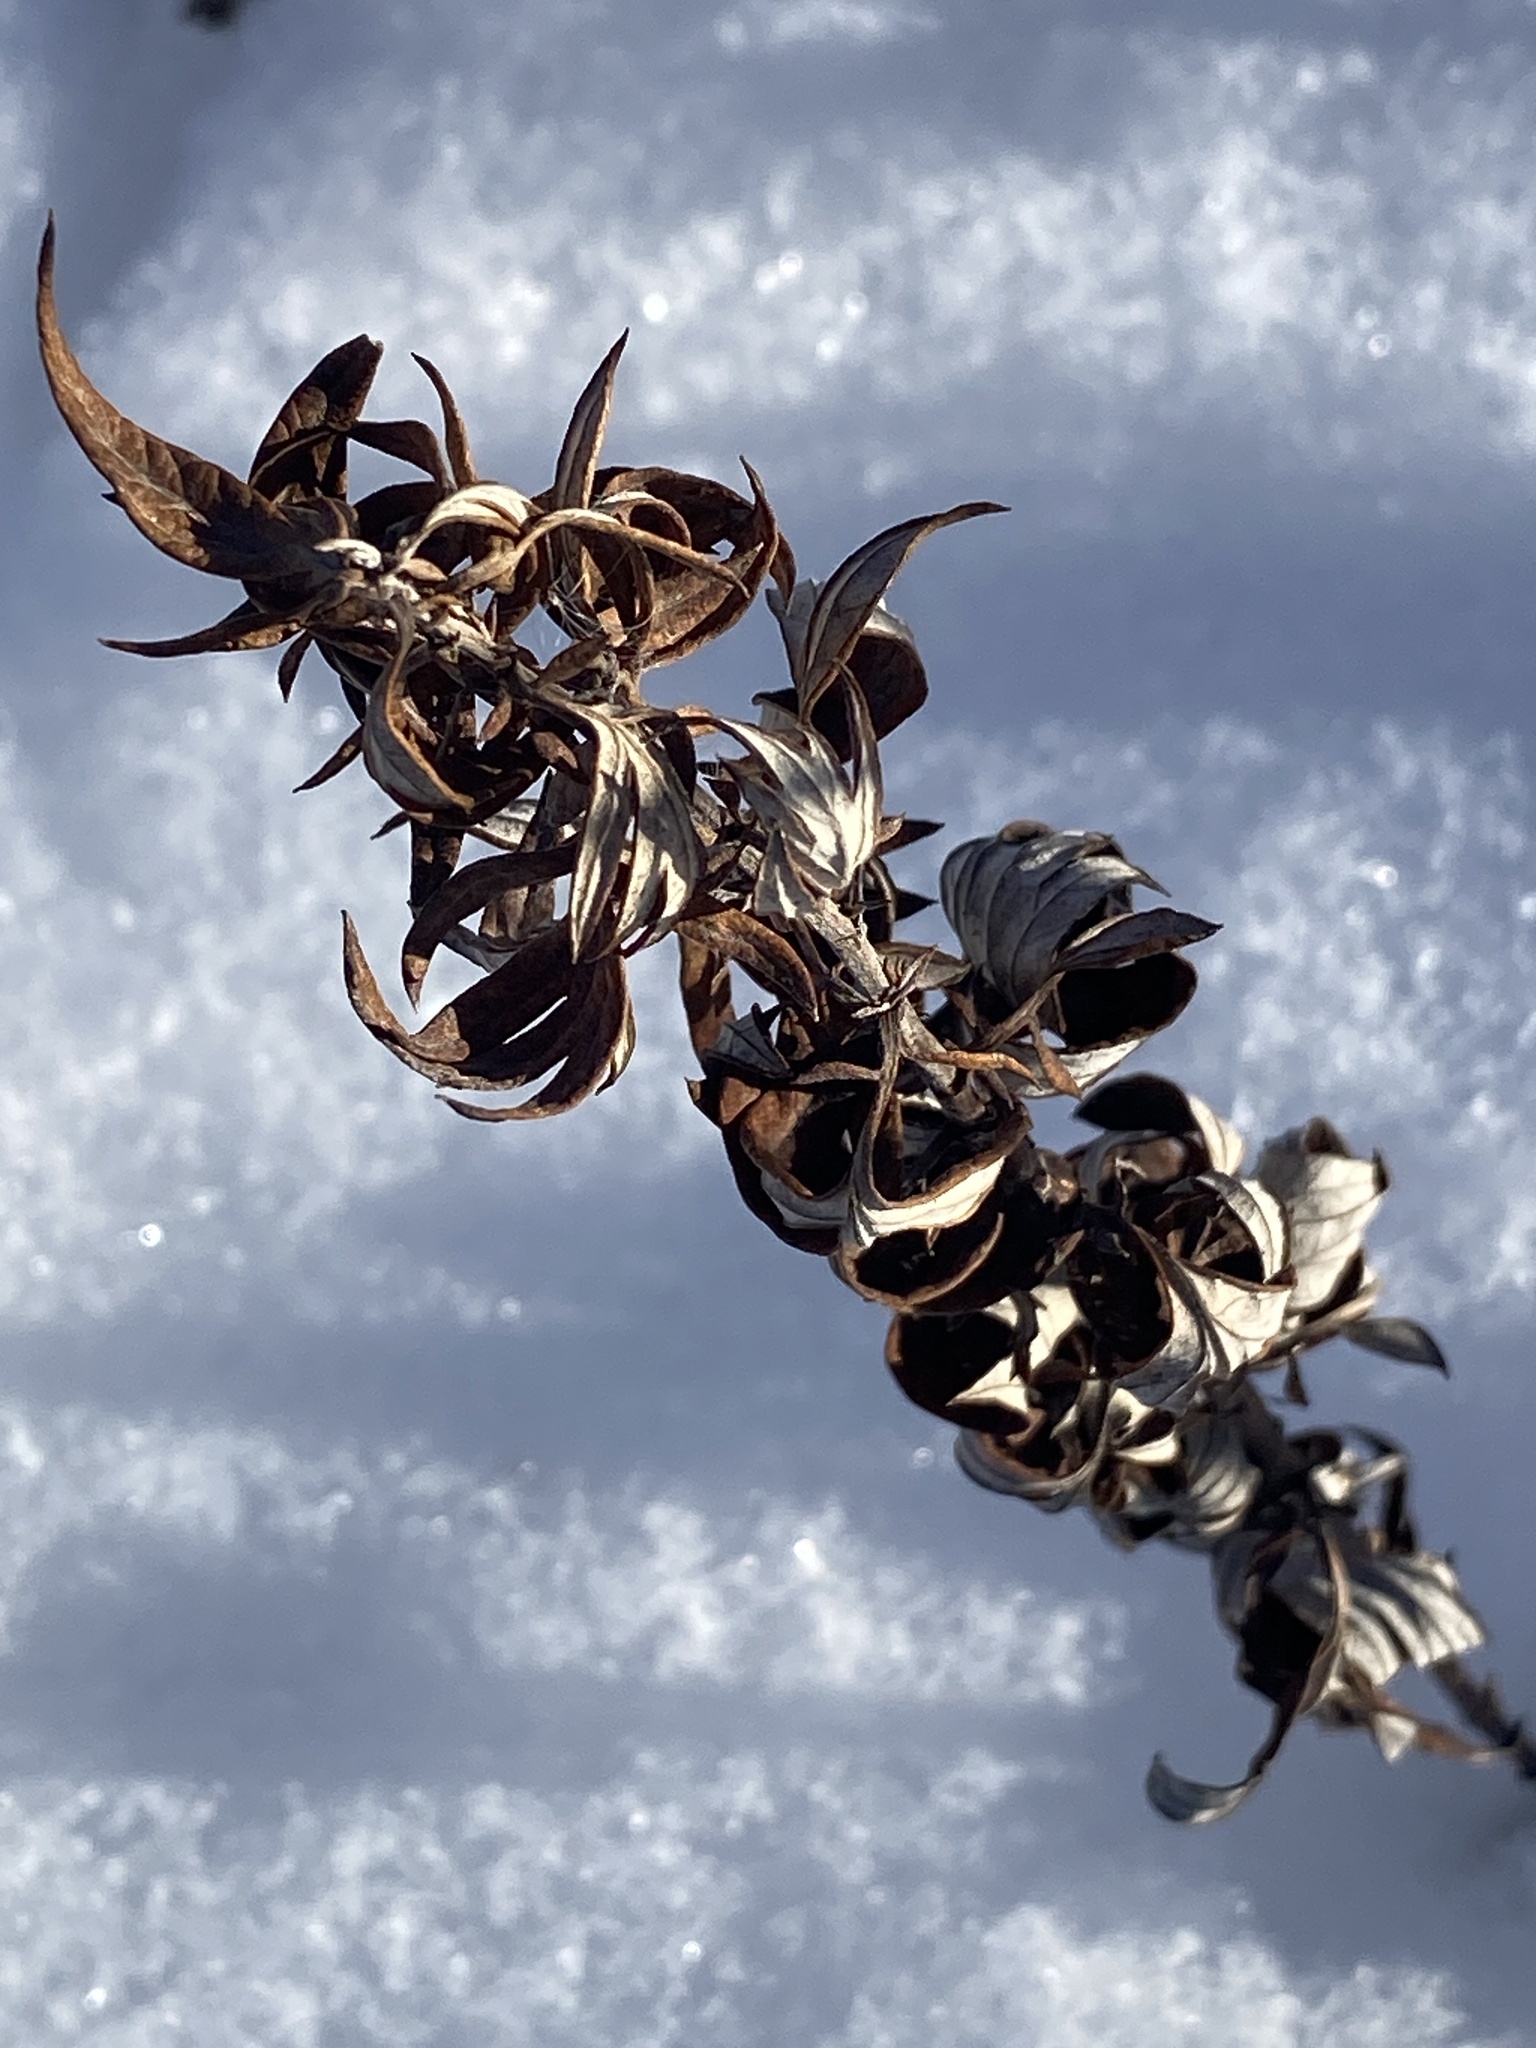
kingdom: Plantae
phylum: Tracheophyta
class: Magnoliopsida
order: Asterales
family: Asteraceae
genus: Artemisia
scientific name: Artemisia vulgaris
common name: Mugwort
